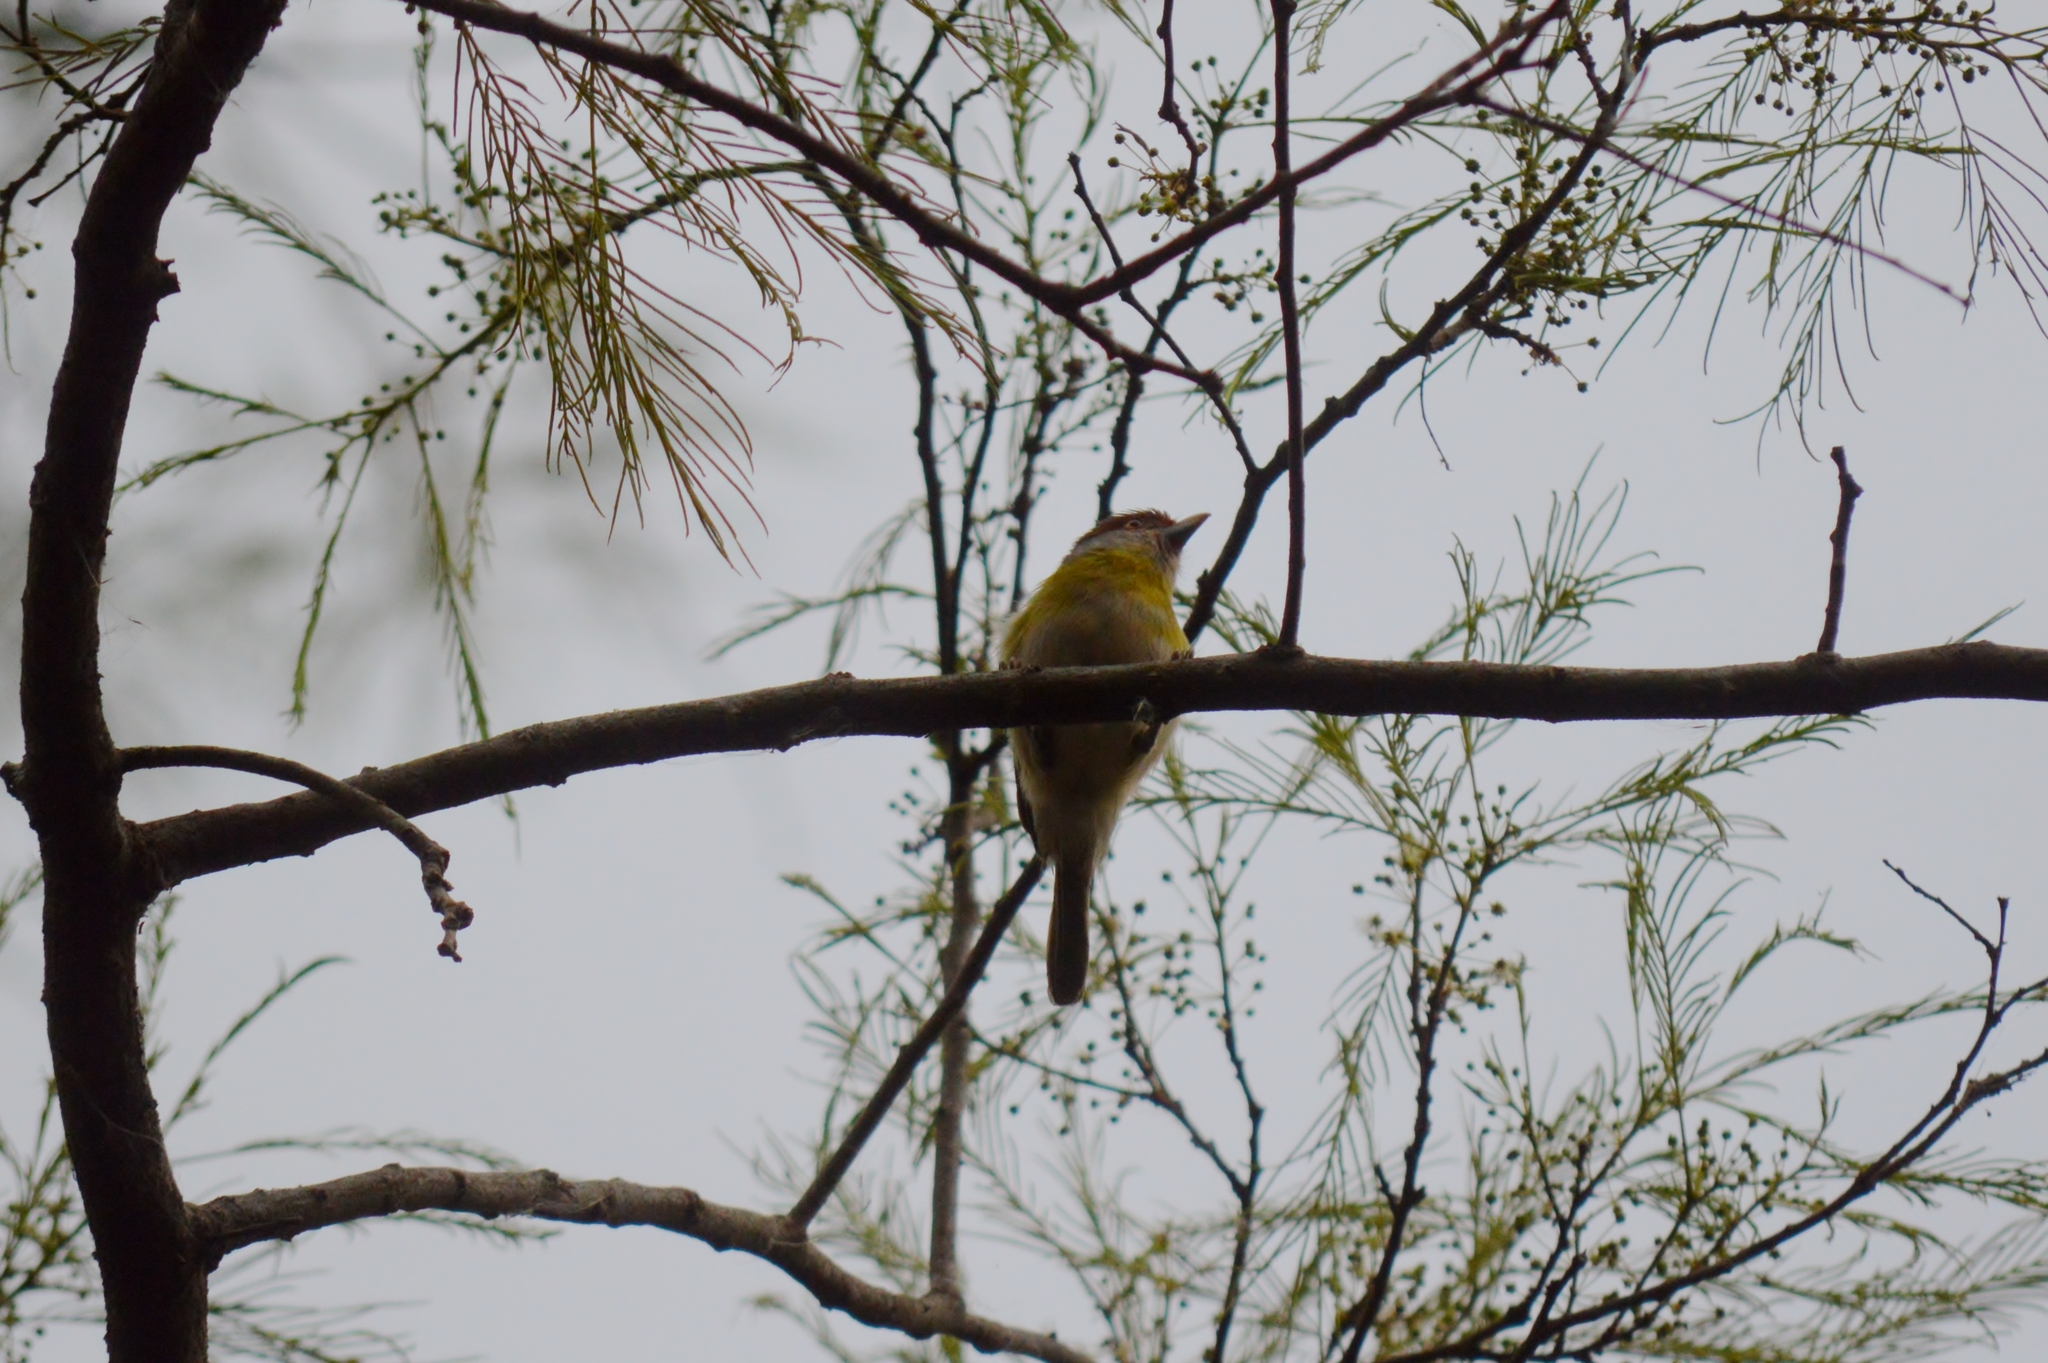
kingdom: Animalia
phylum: Chordata
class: Aves
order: Passeriformes
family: Vireonidae
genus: Cyclarhis
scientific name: Cyclarhis gujanensis
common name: Rufous-browed peppershrike
